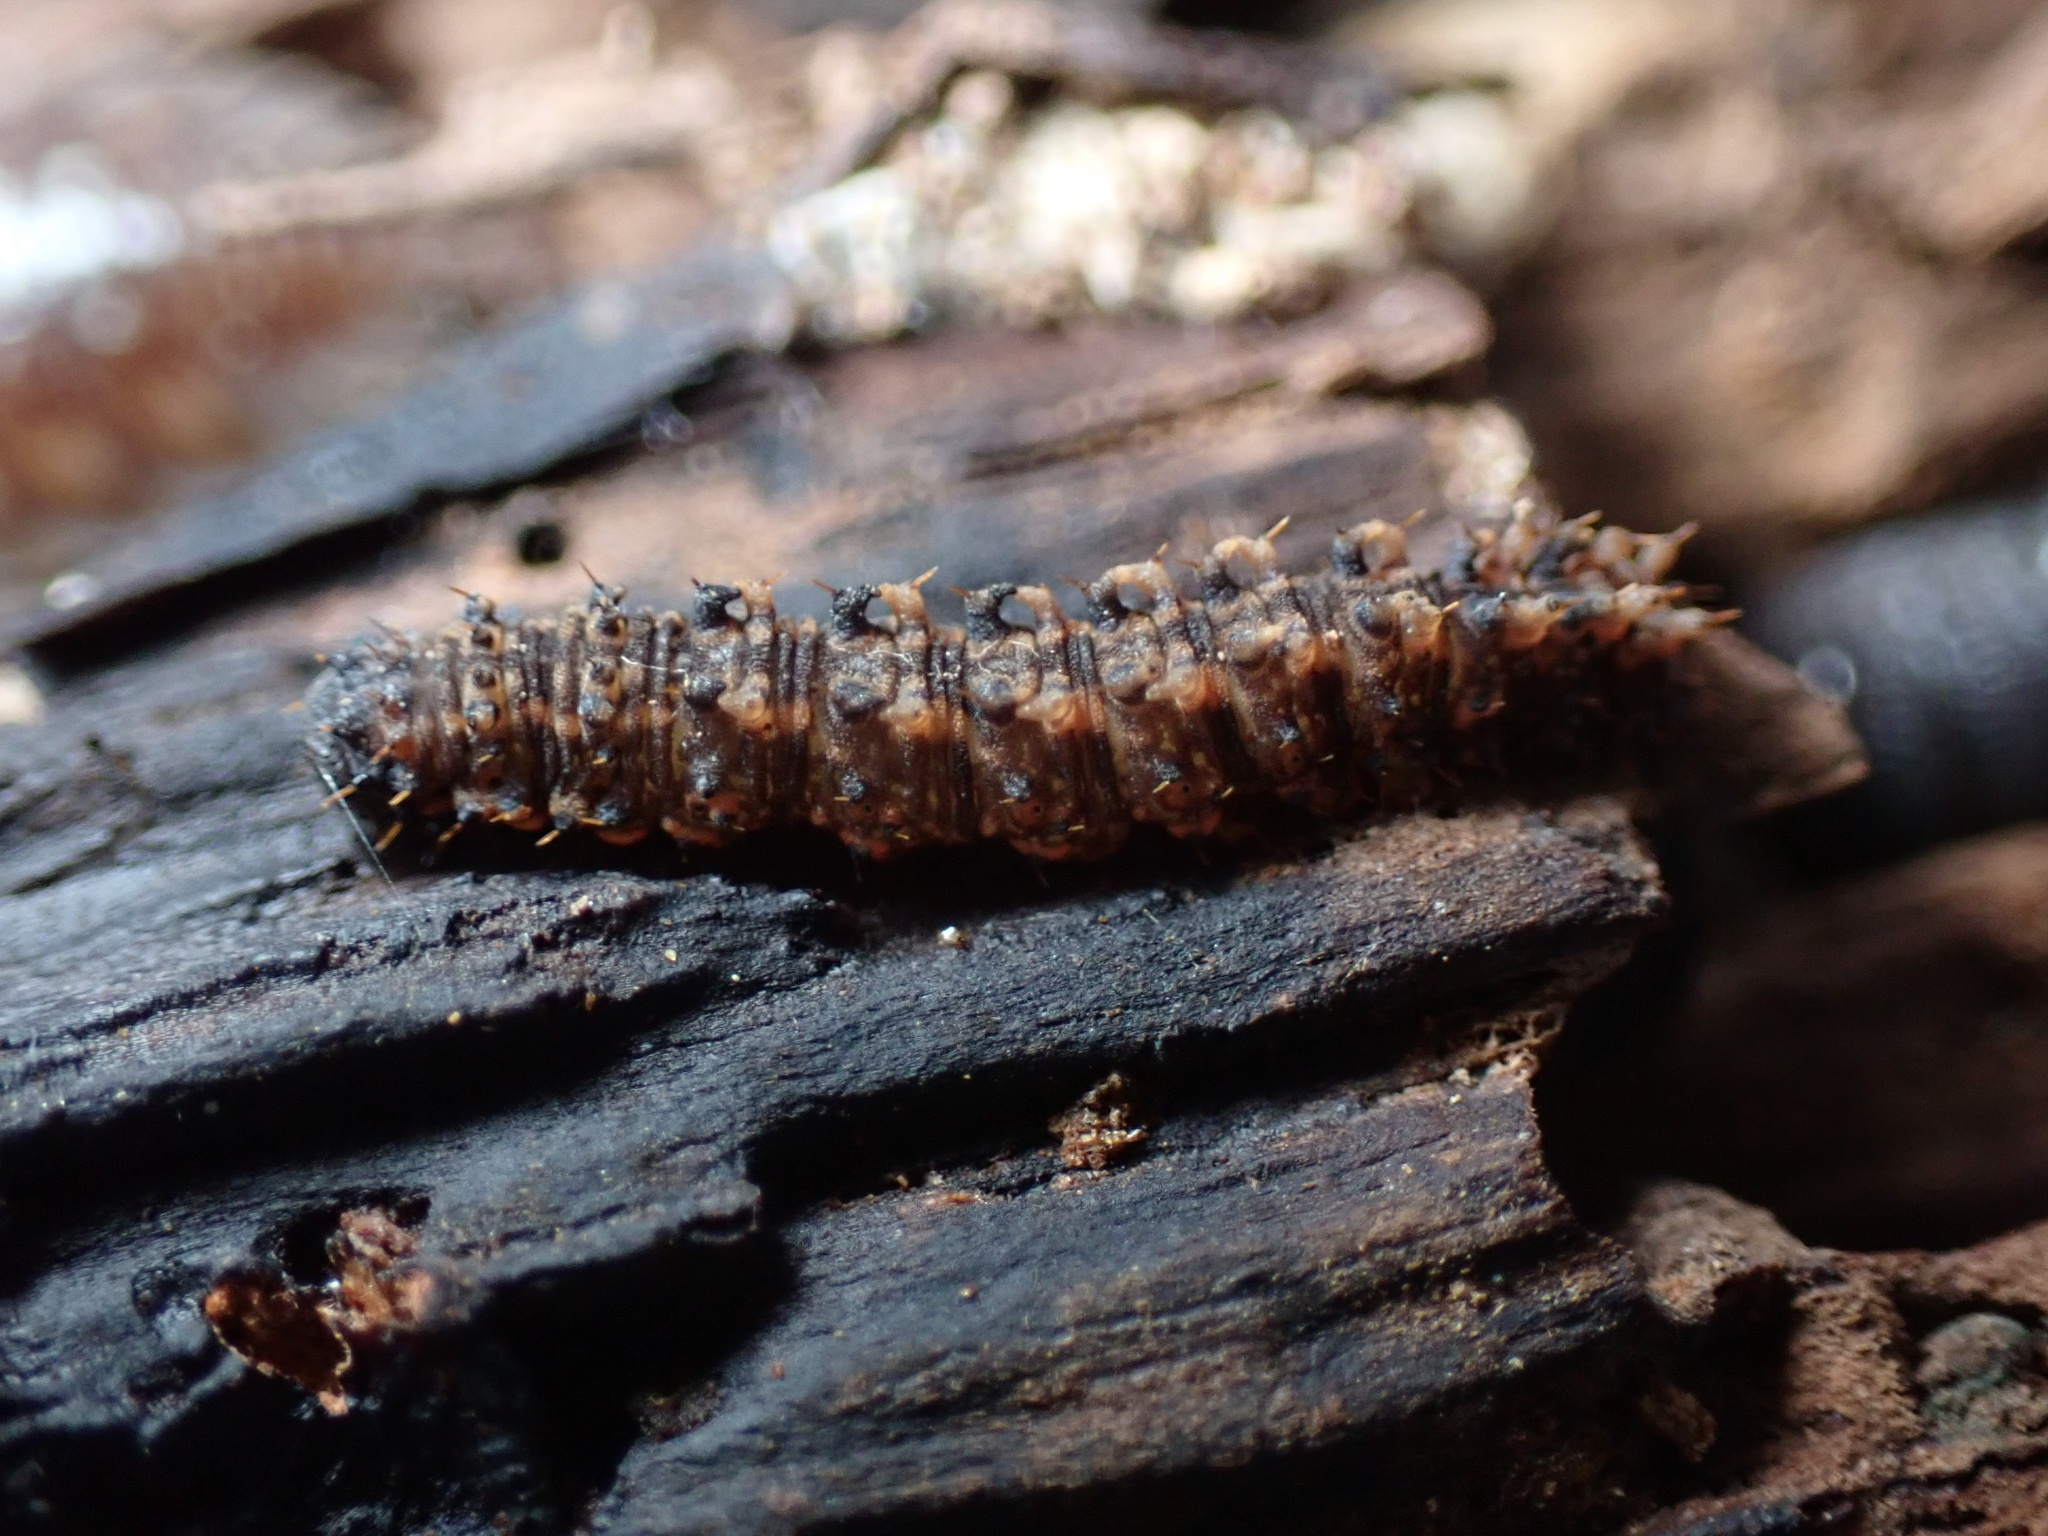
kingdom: Animalia
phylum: Arthropoda
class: Insecta
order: Lepidoptera
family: Erebidae
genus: Idia
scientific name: Idia lubricalis
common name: Twin-striped tabby
